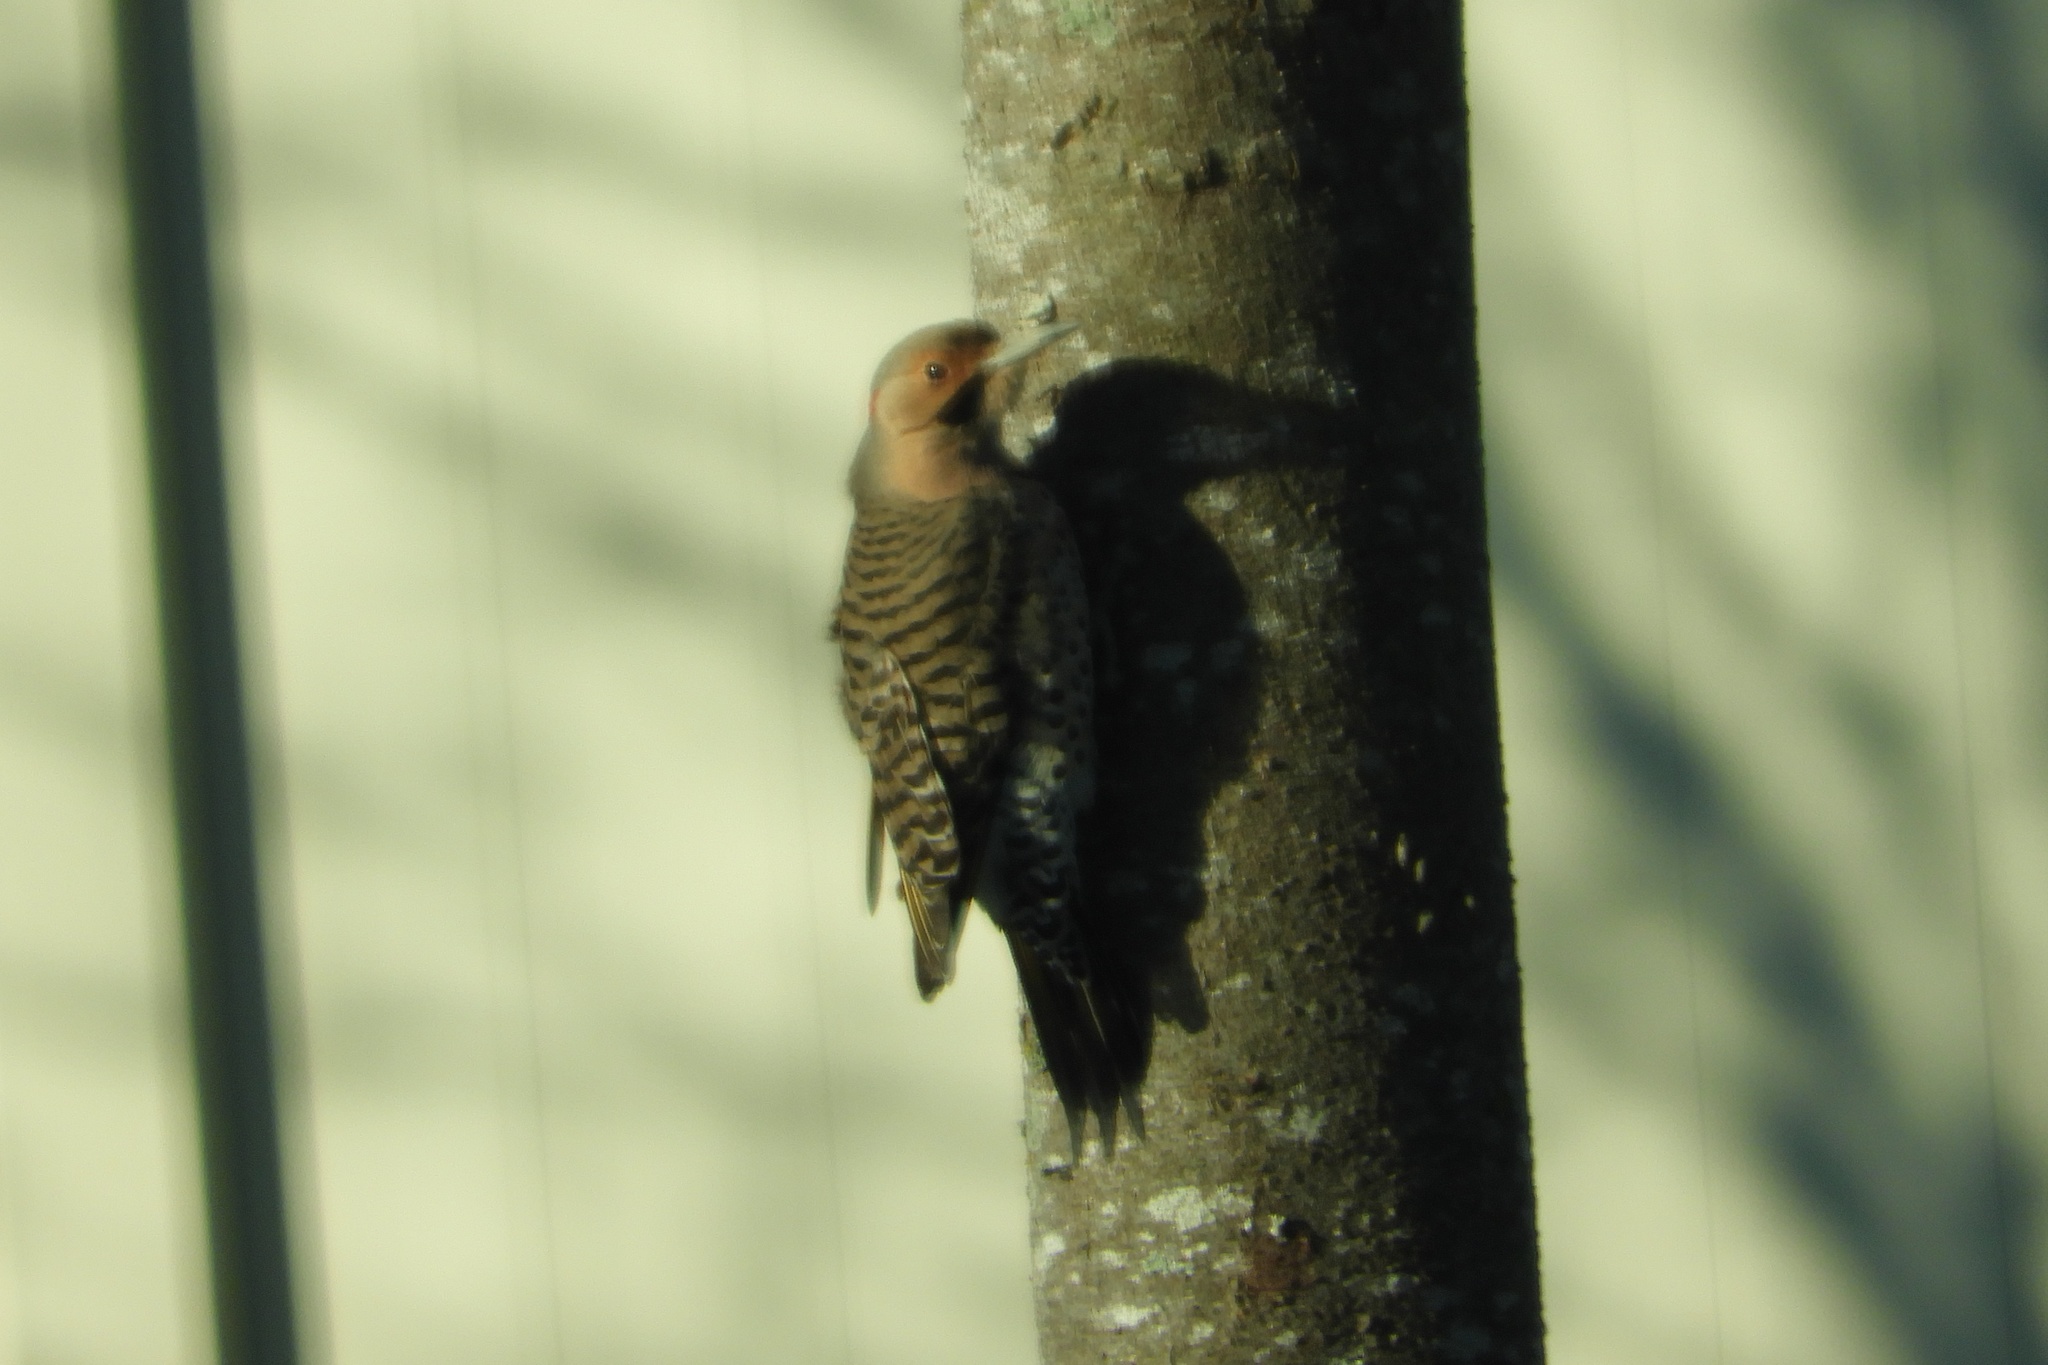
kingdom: Animalia
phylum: Chordata
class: Aves
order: Piciformes
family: Picidae
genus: Colaptes
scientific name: Colaptes auratus
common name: Northern flicker
